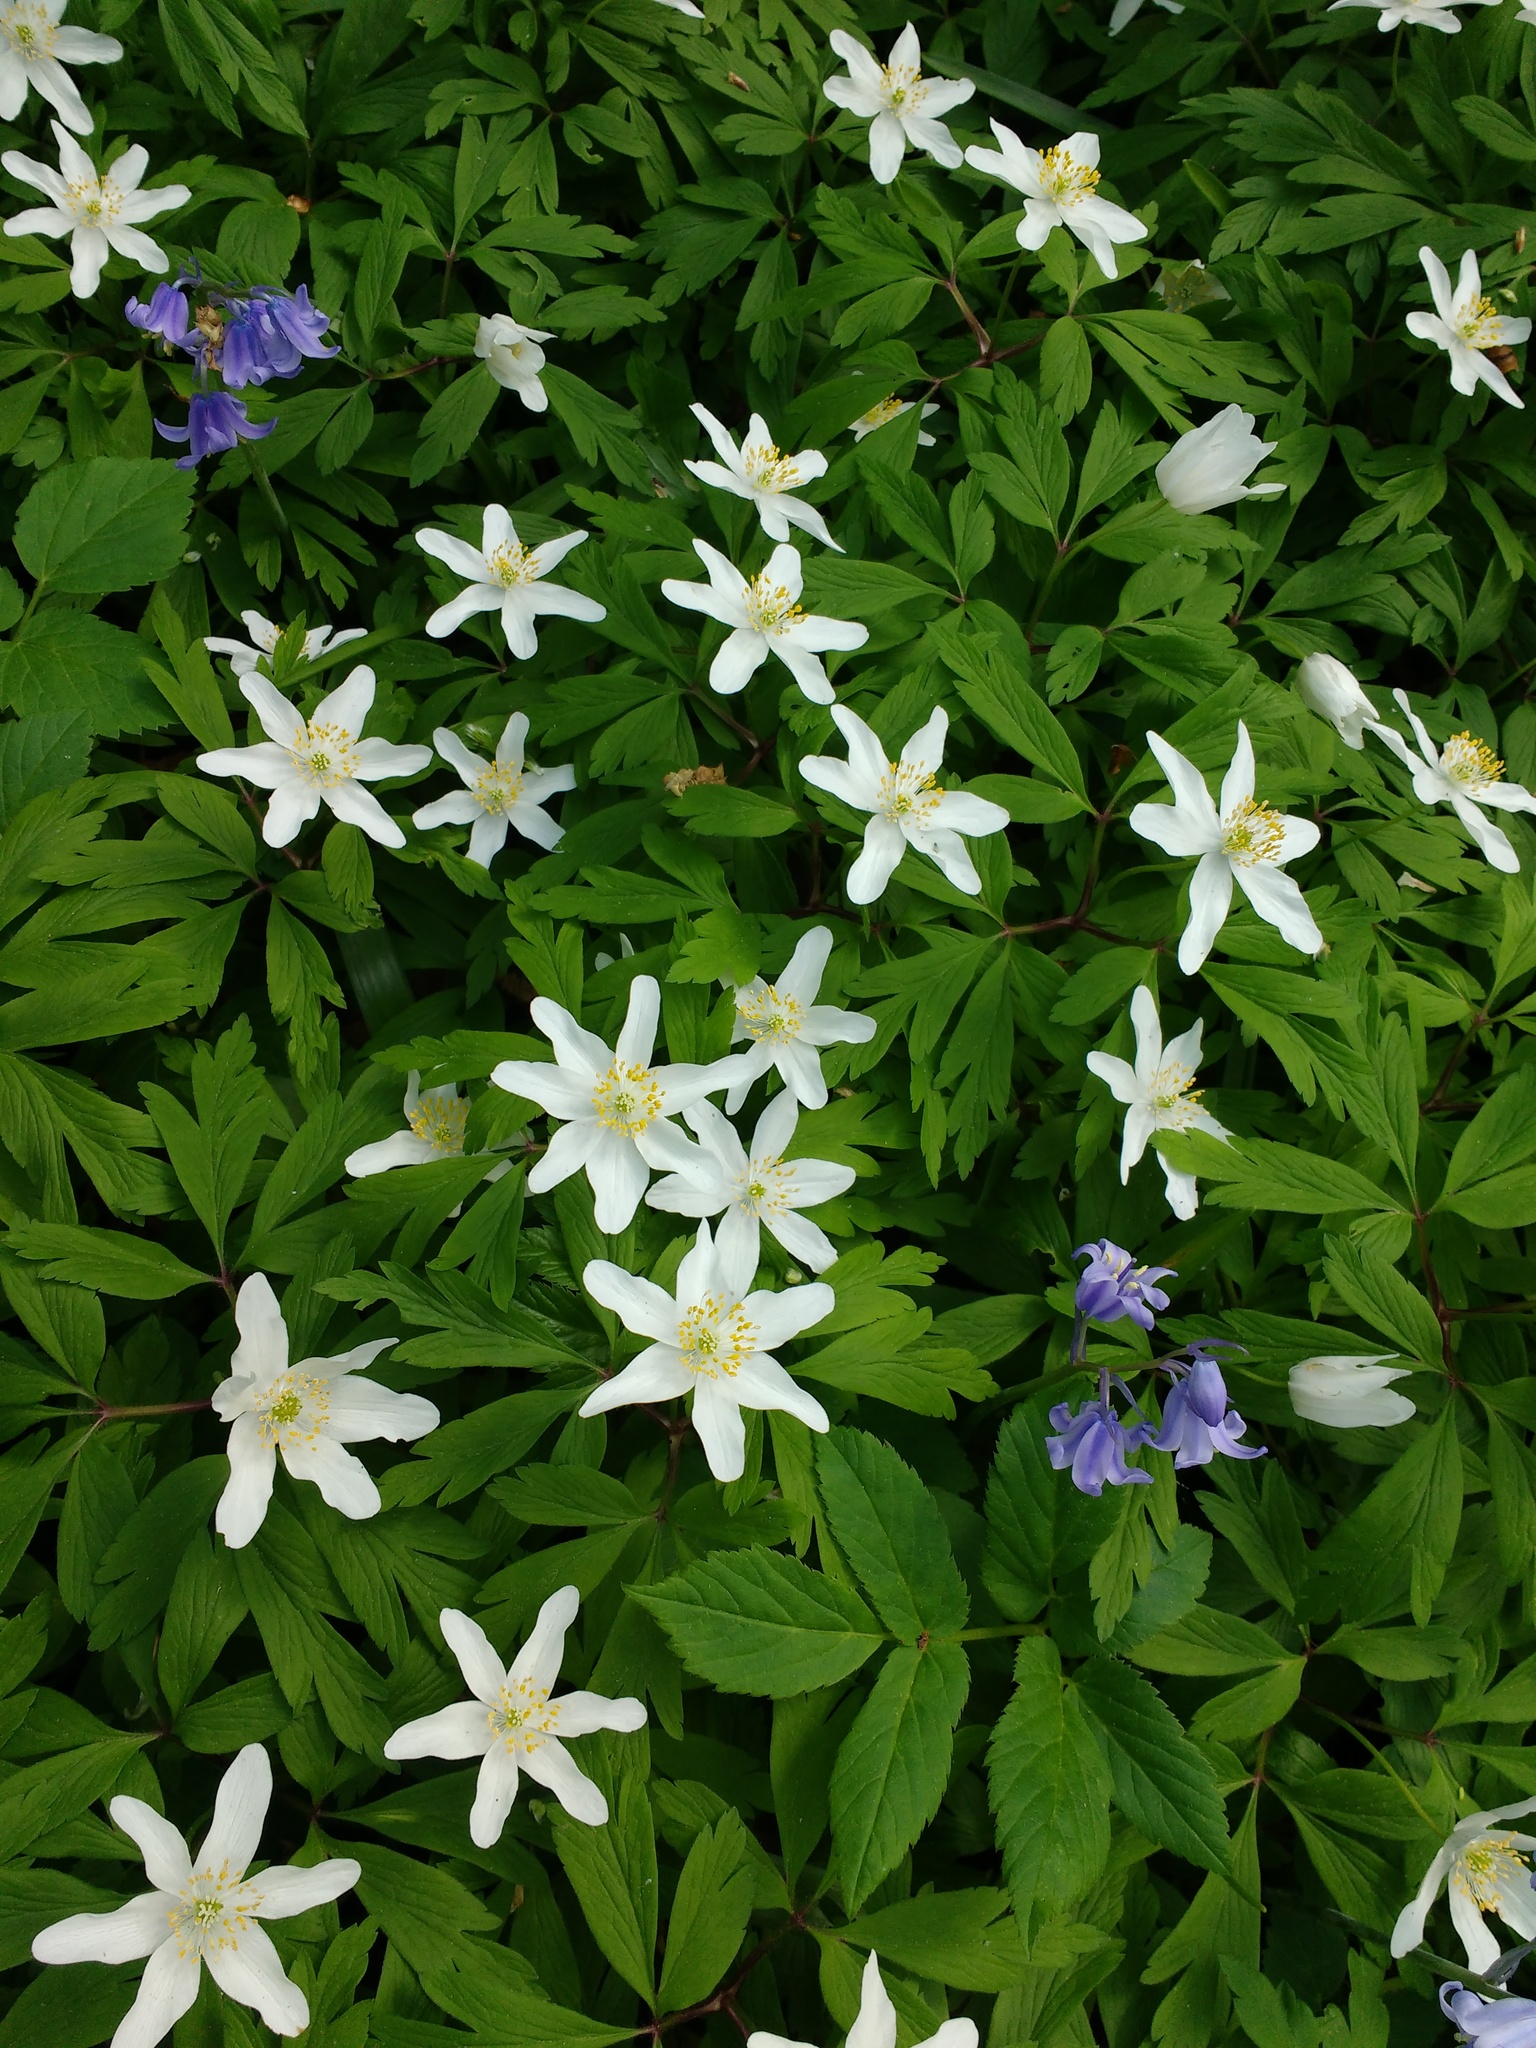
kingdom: Plantae
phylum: Tracheophyta
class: Magnoliopsida
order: Ranunculales
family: Ranunculaceae
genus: Anemone
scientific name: Anemone nemorosa
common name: Wood anemone
